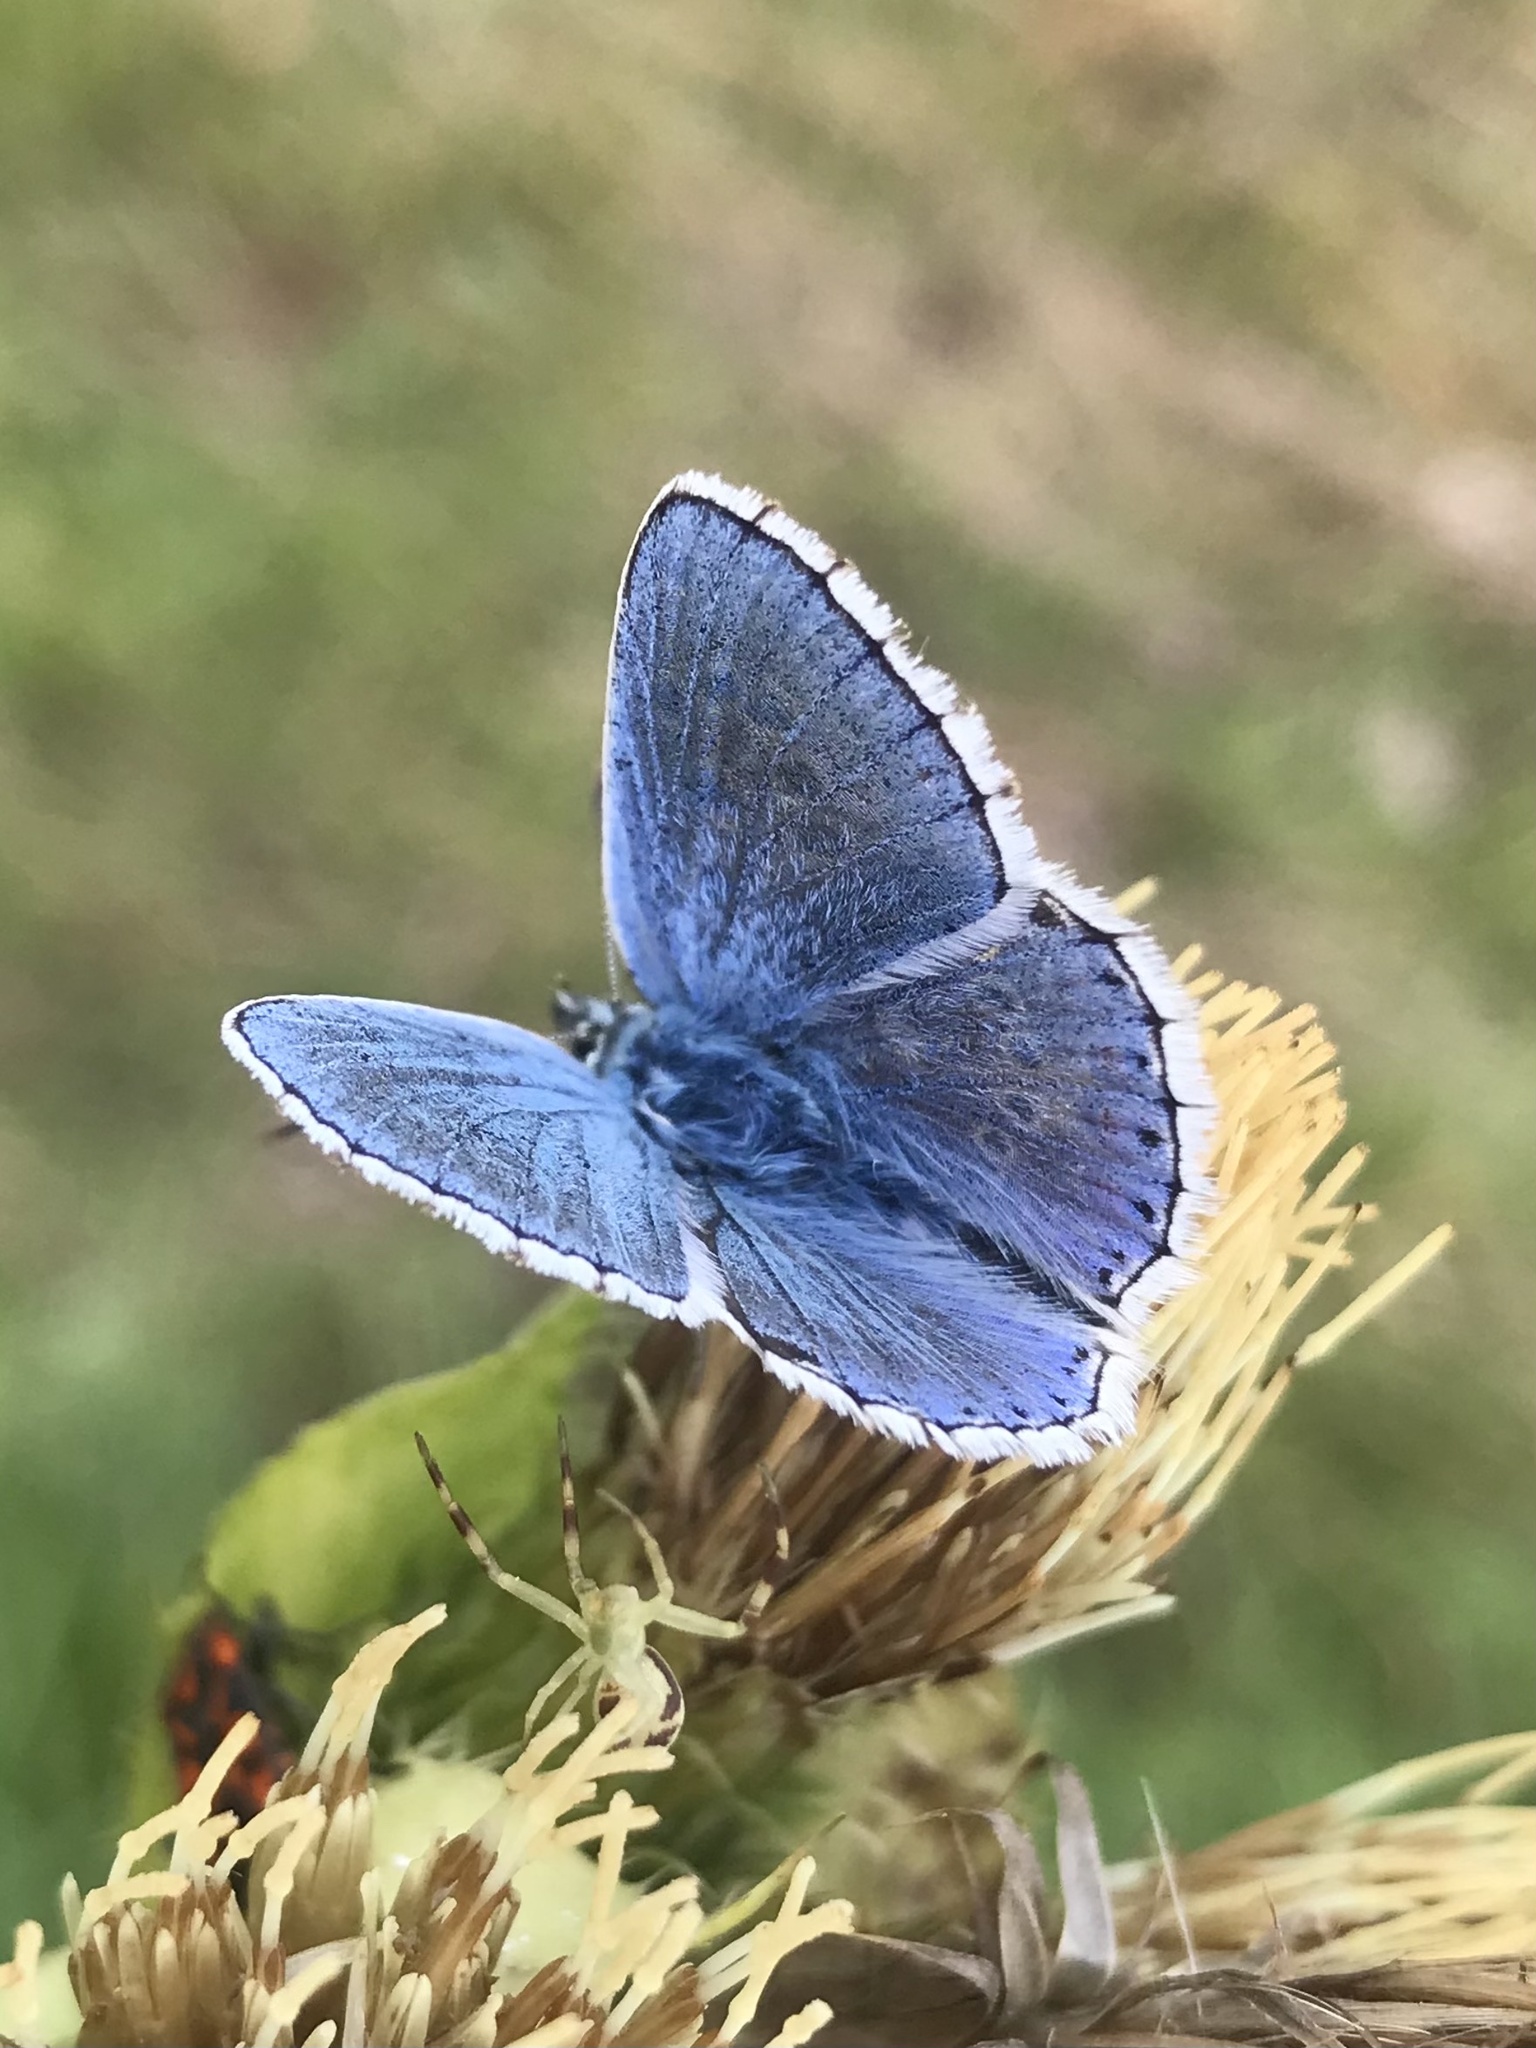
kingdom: Animalia
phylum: Arthropoda
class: Insecta
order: Lepidoptera
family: Lycaenidae
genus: Lysandra
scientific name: Lysandra bellargus
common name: Adonis blue
